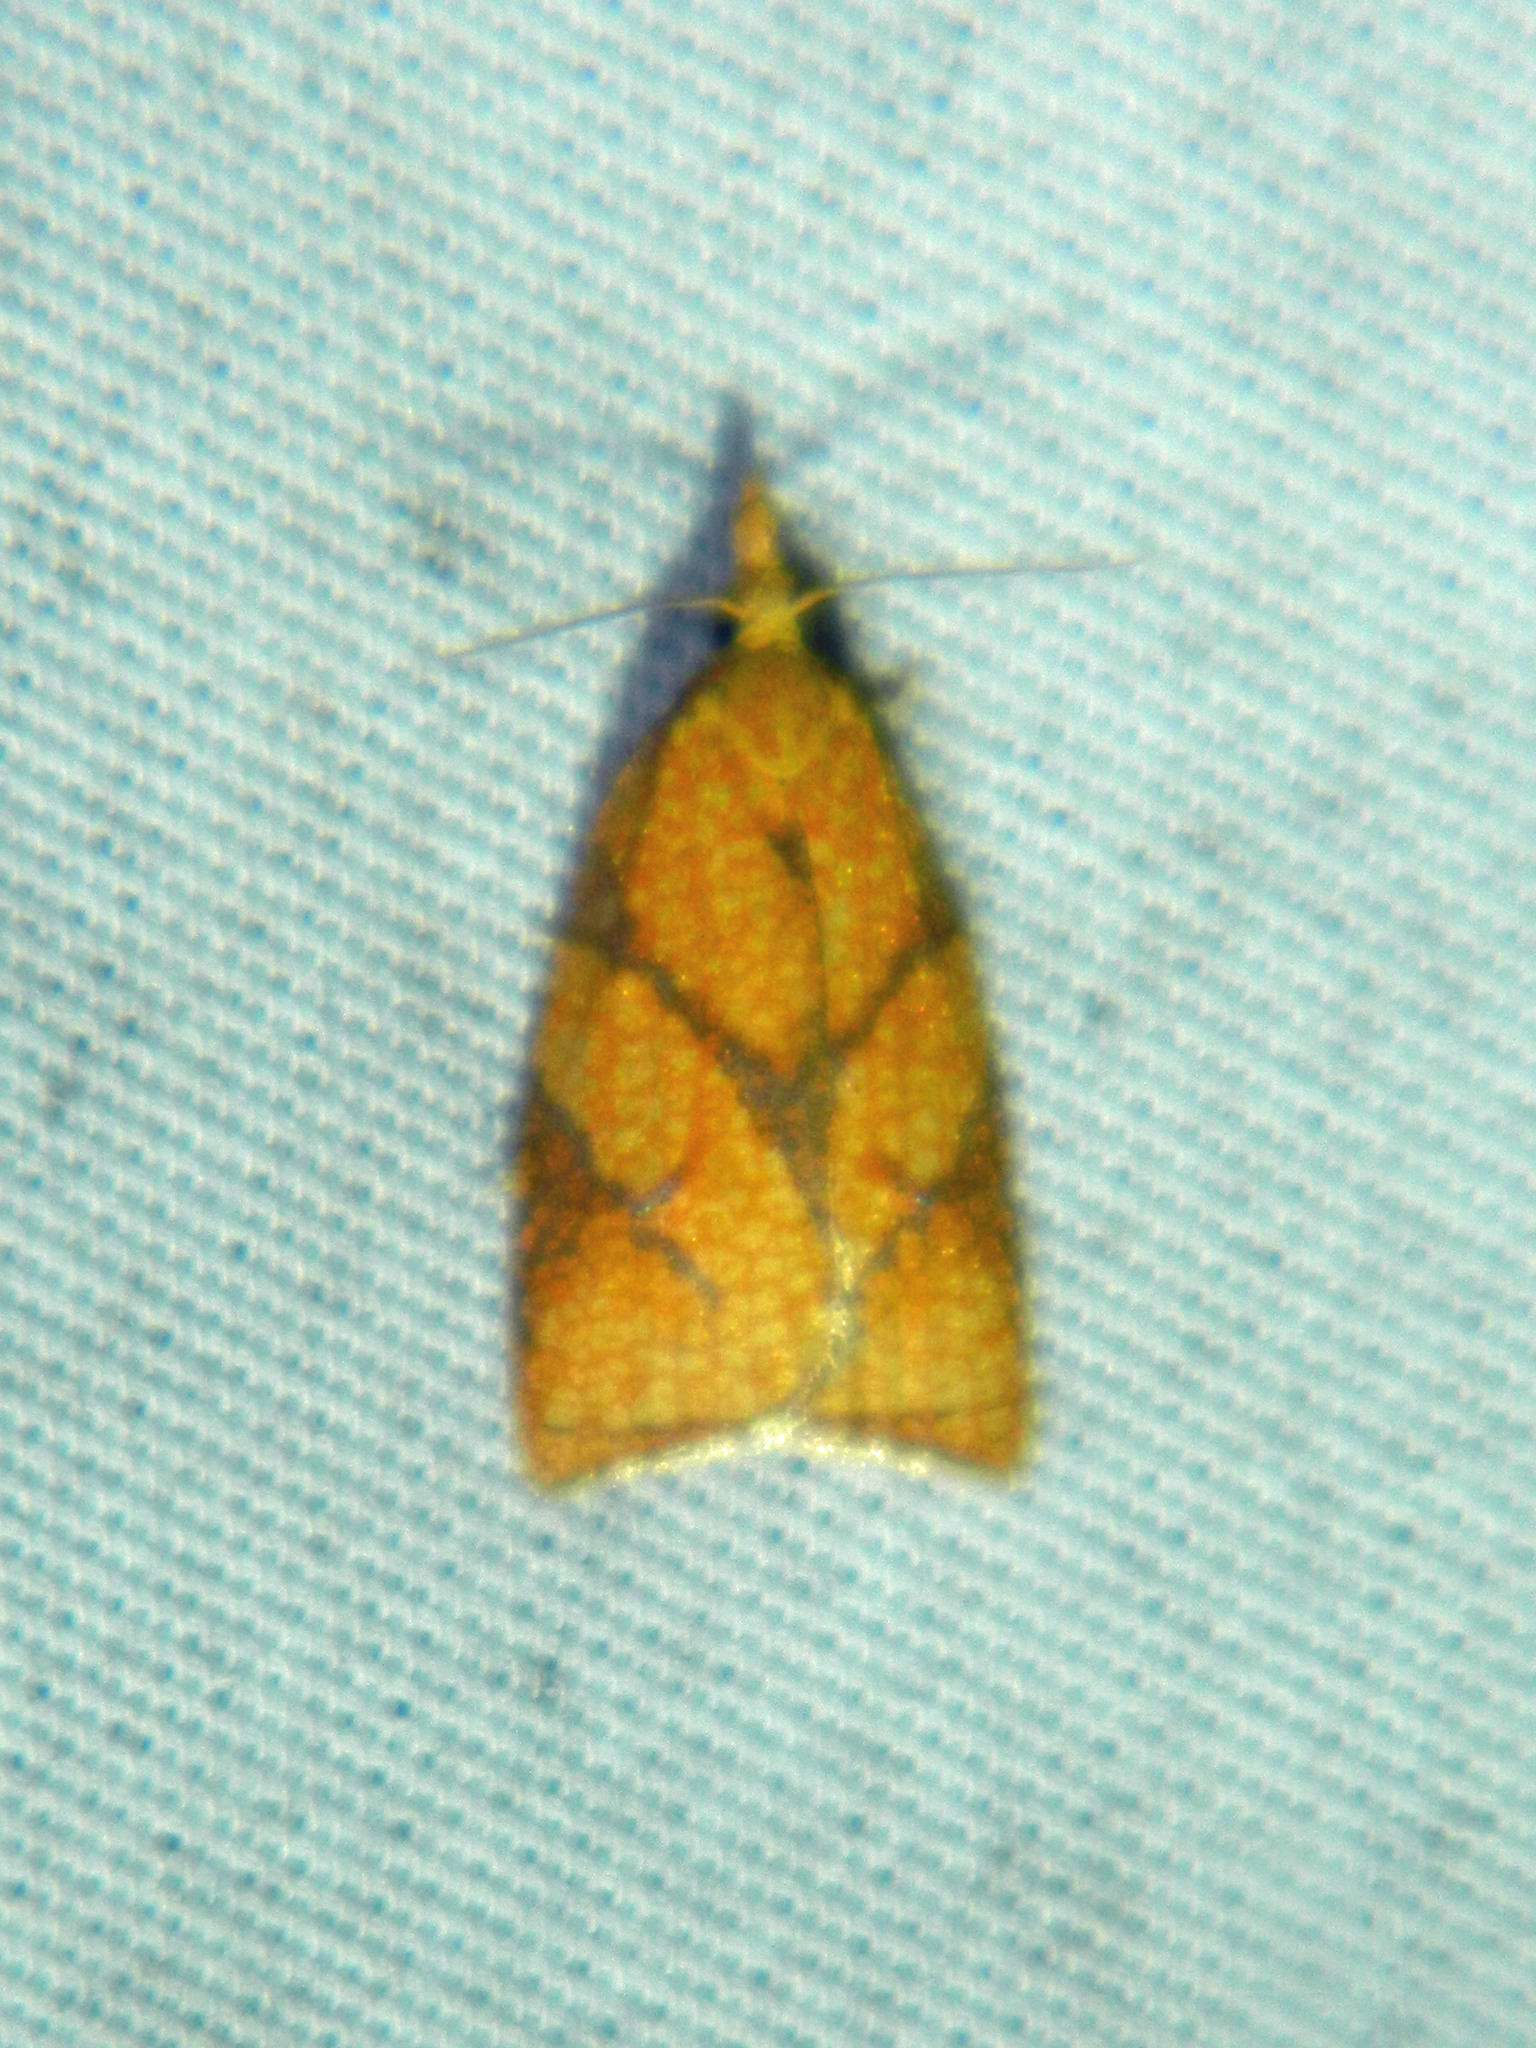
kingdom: Animalia
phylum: Arthropoda
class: Insecta
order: Lepidoptera
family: Tortricidae
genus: Cenopis
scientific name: Cenopis reticulatana
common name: Reticulated fruitworm moth
